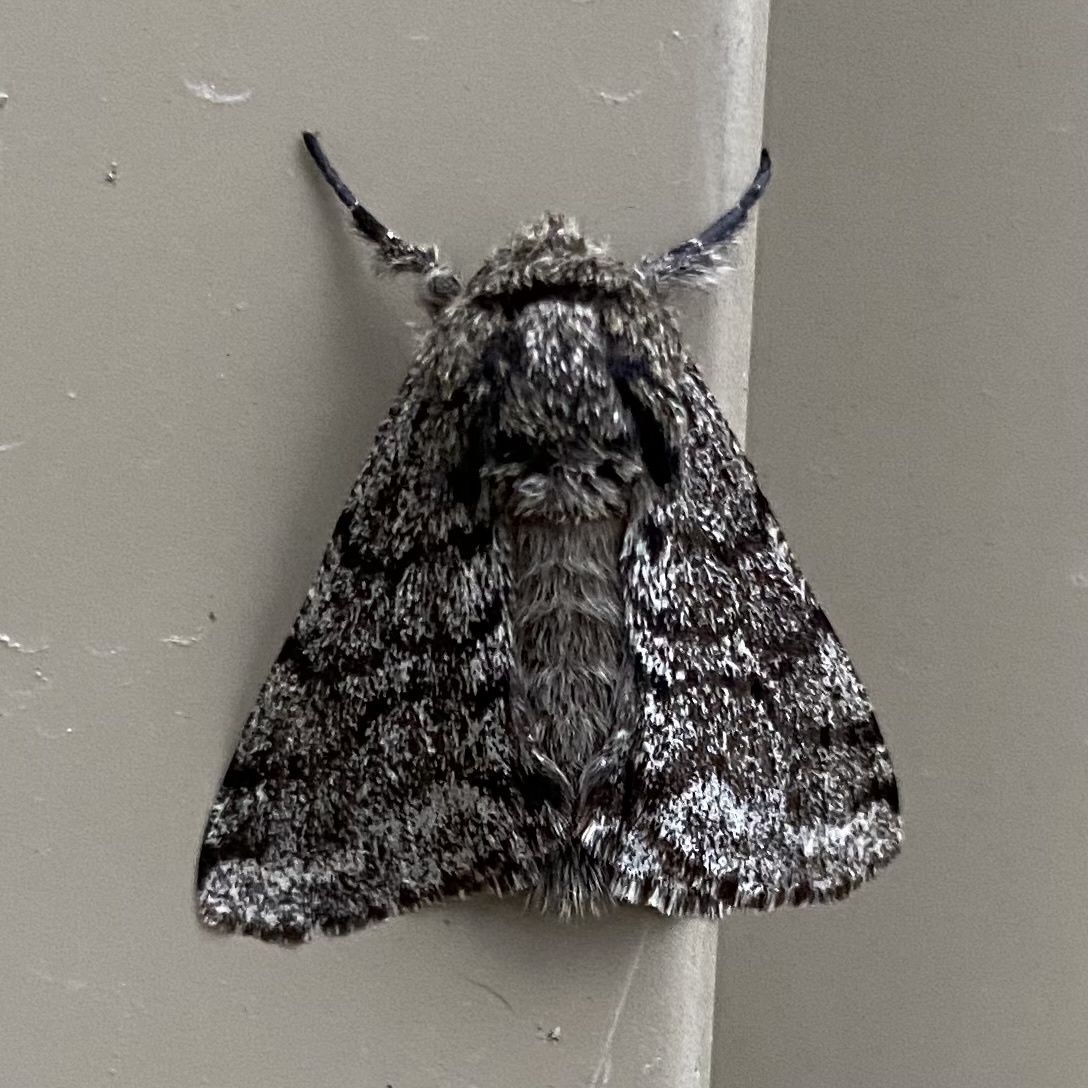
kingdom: Animalia
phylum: Arthropoda
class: Insecta
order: Lepidoptera
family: Geometridae
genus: Lycia
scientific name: Lycia ursaria
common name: Stout spanworm
